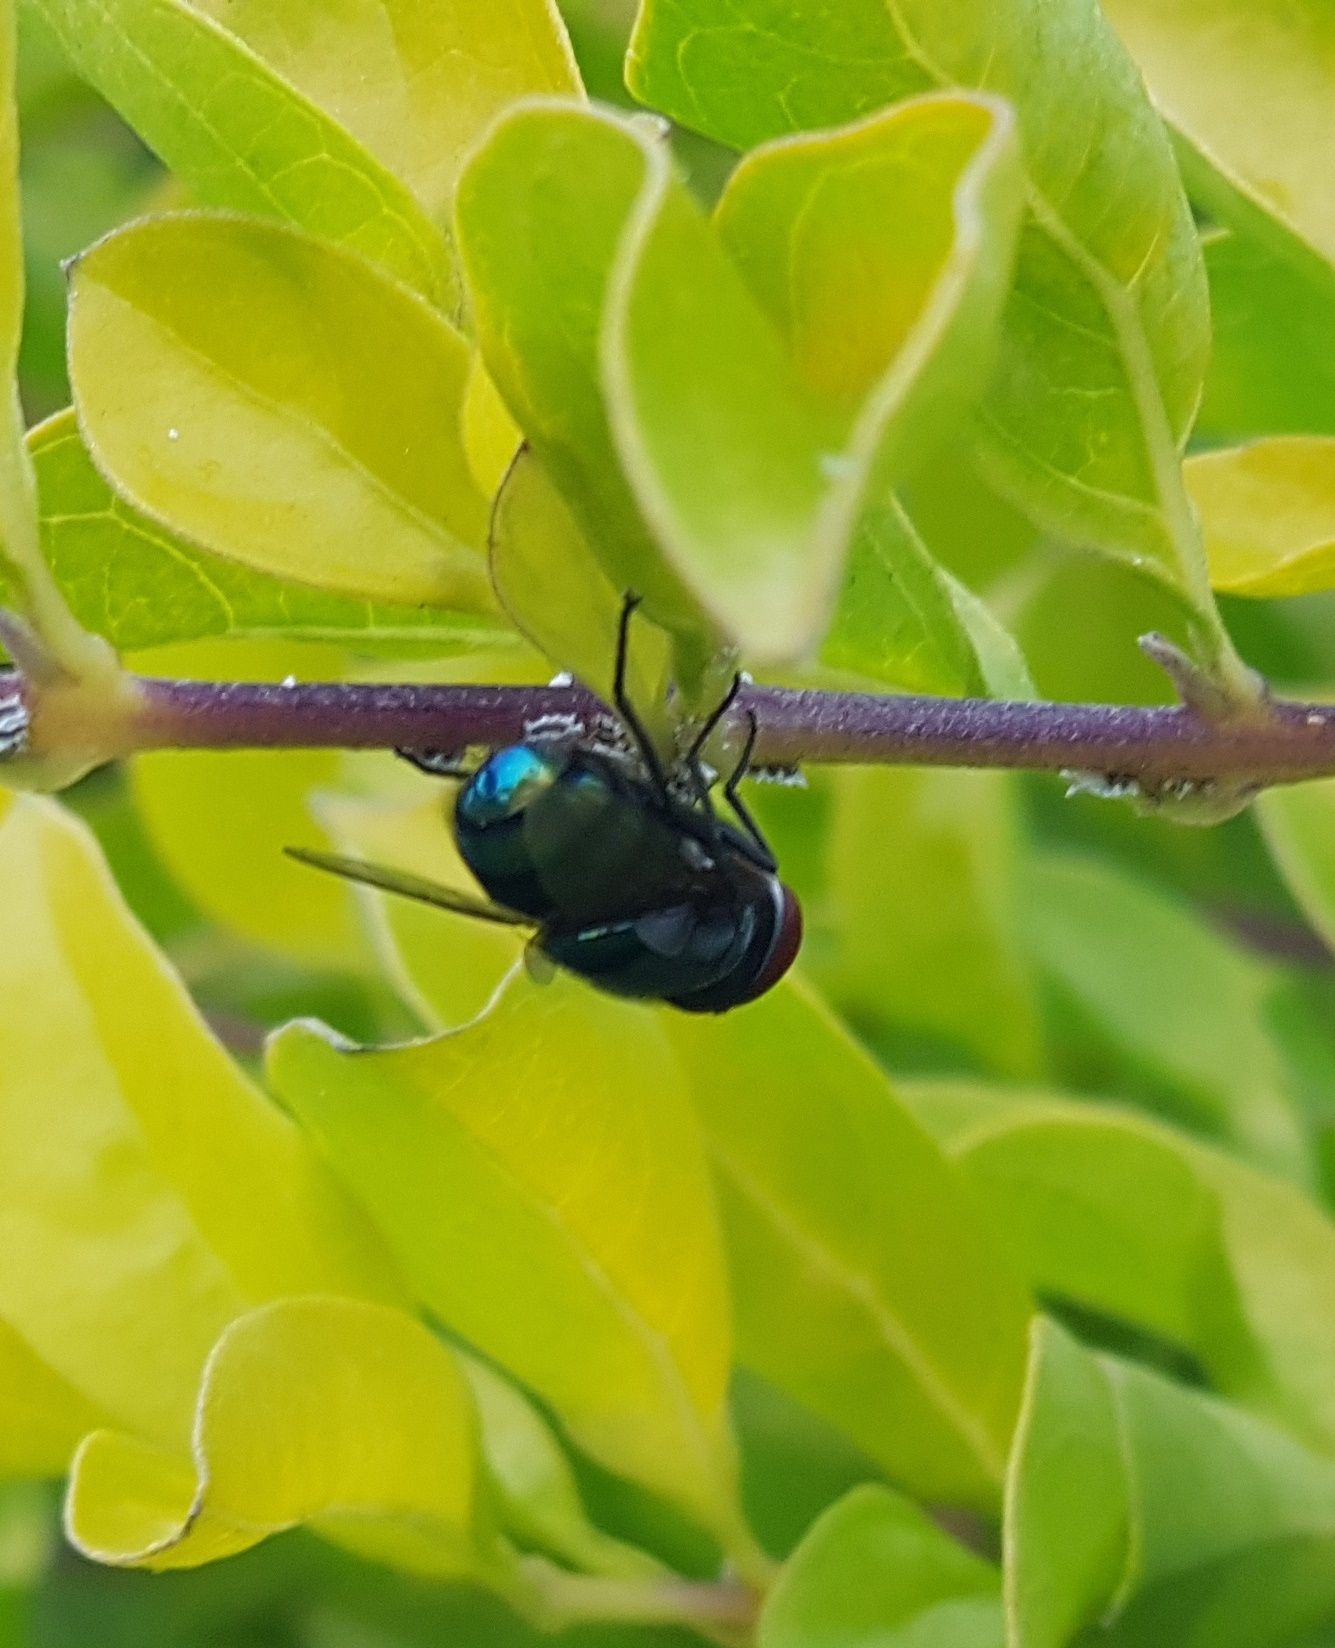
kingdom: Animalia
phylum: Arthropoda
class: Insecta
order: Diptera
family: Calliphoridae
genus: Chrysomya
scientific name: Chrysomya megacephala
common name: Blow fly
